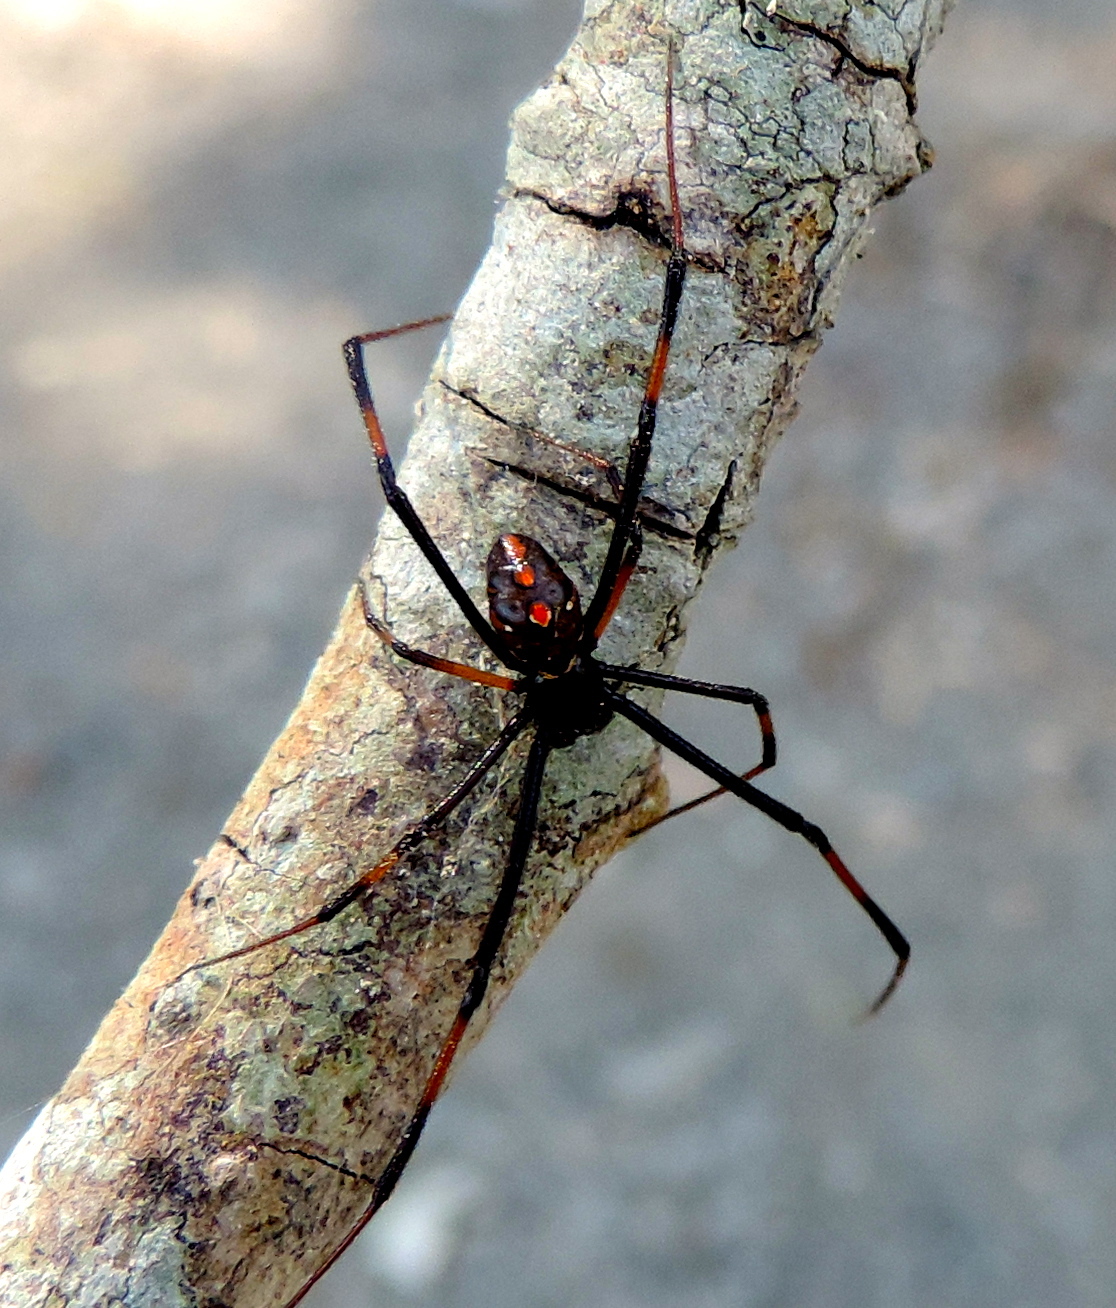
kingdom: Animalia
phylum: Arthropoda
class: Arachnida
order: Araneae
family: Theridiidae
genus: Latrodectus
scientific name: Latrodectus mactans
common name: Cobweb spiders
